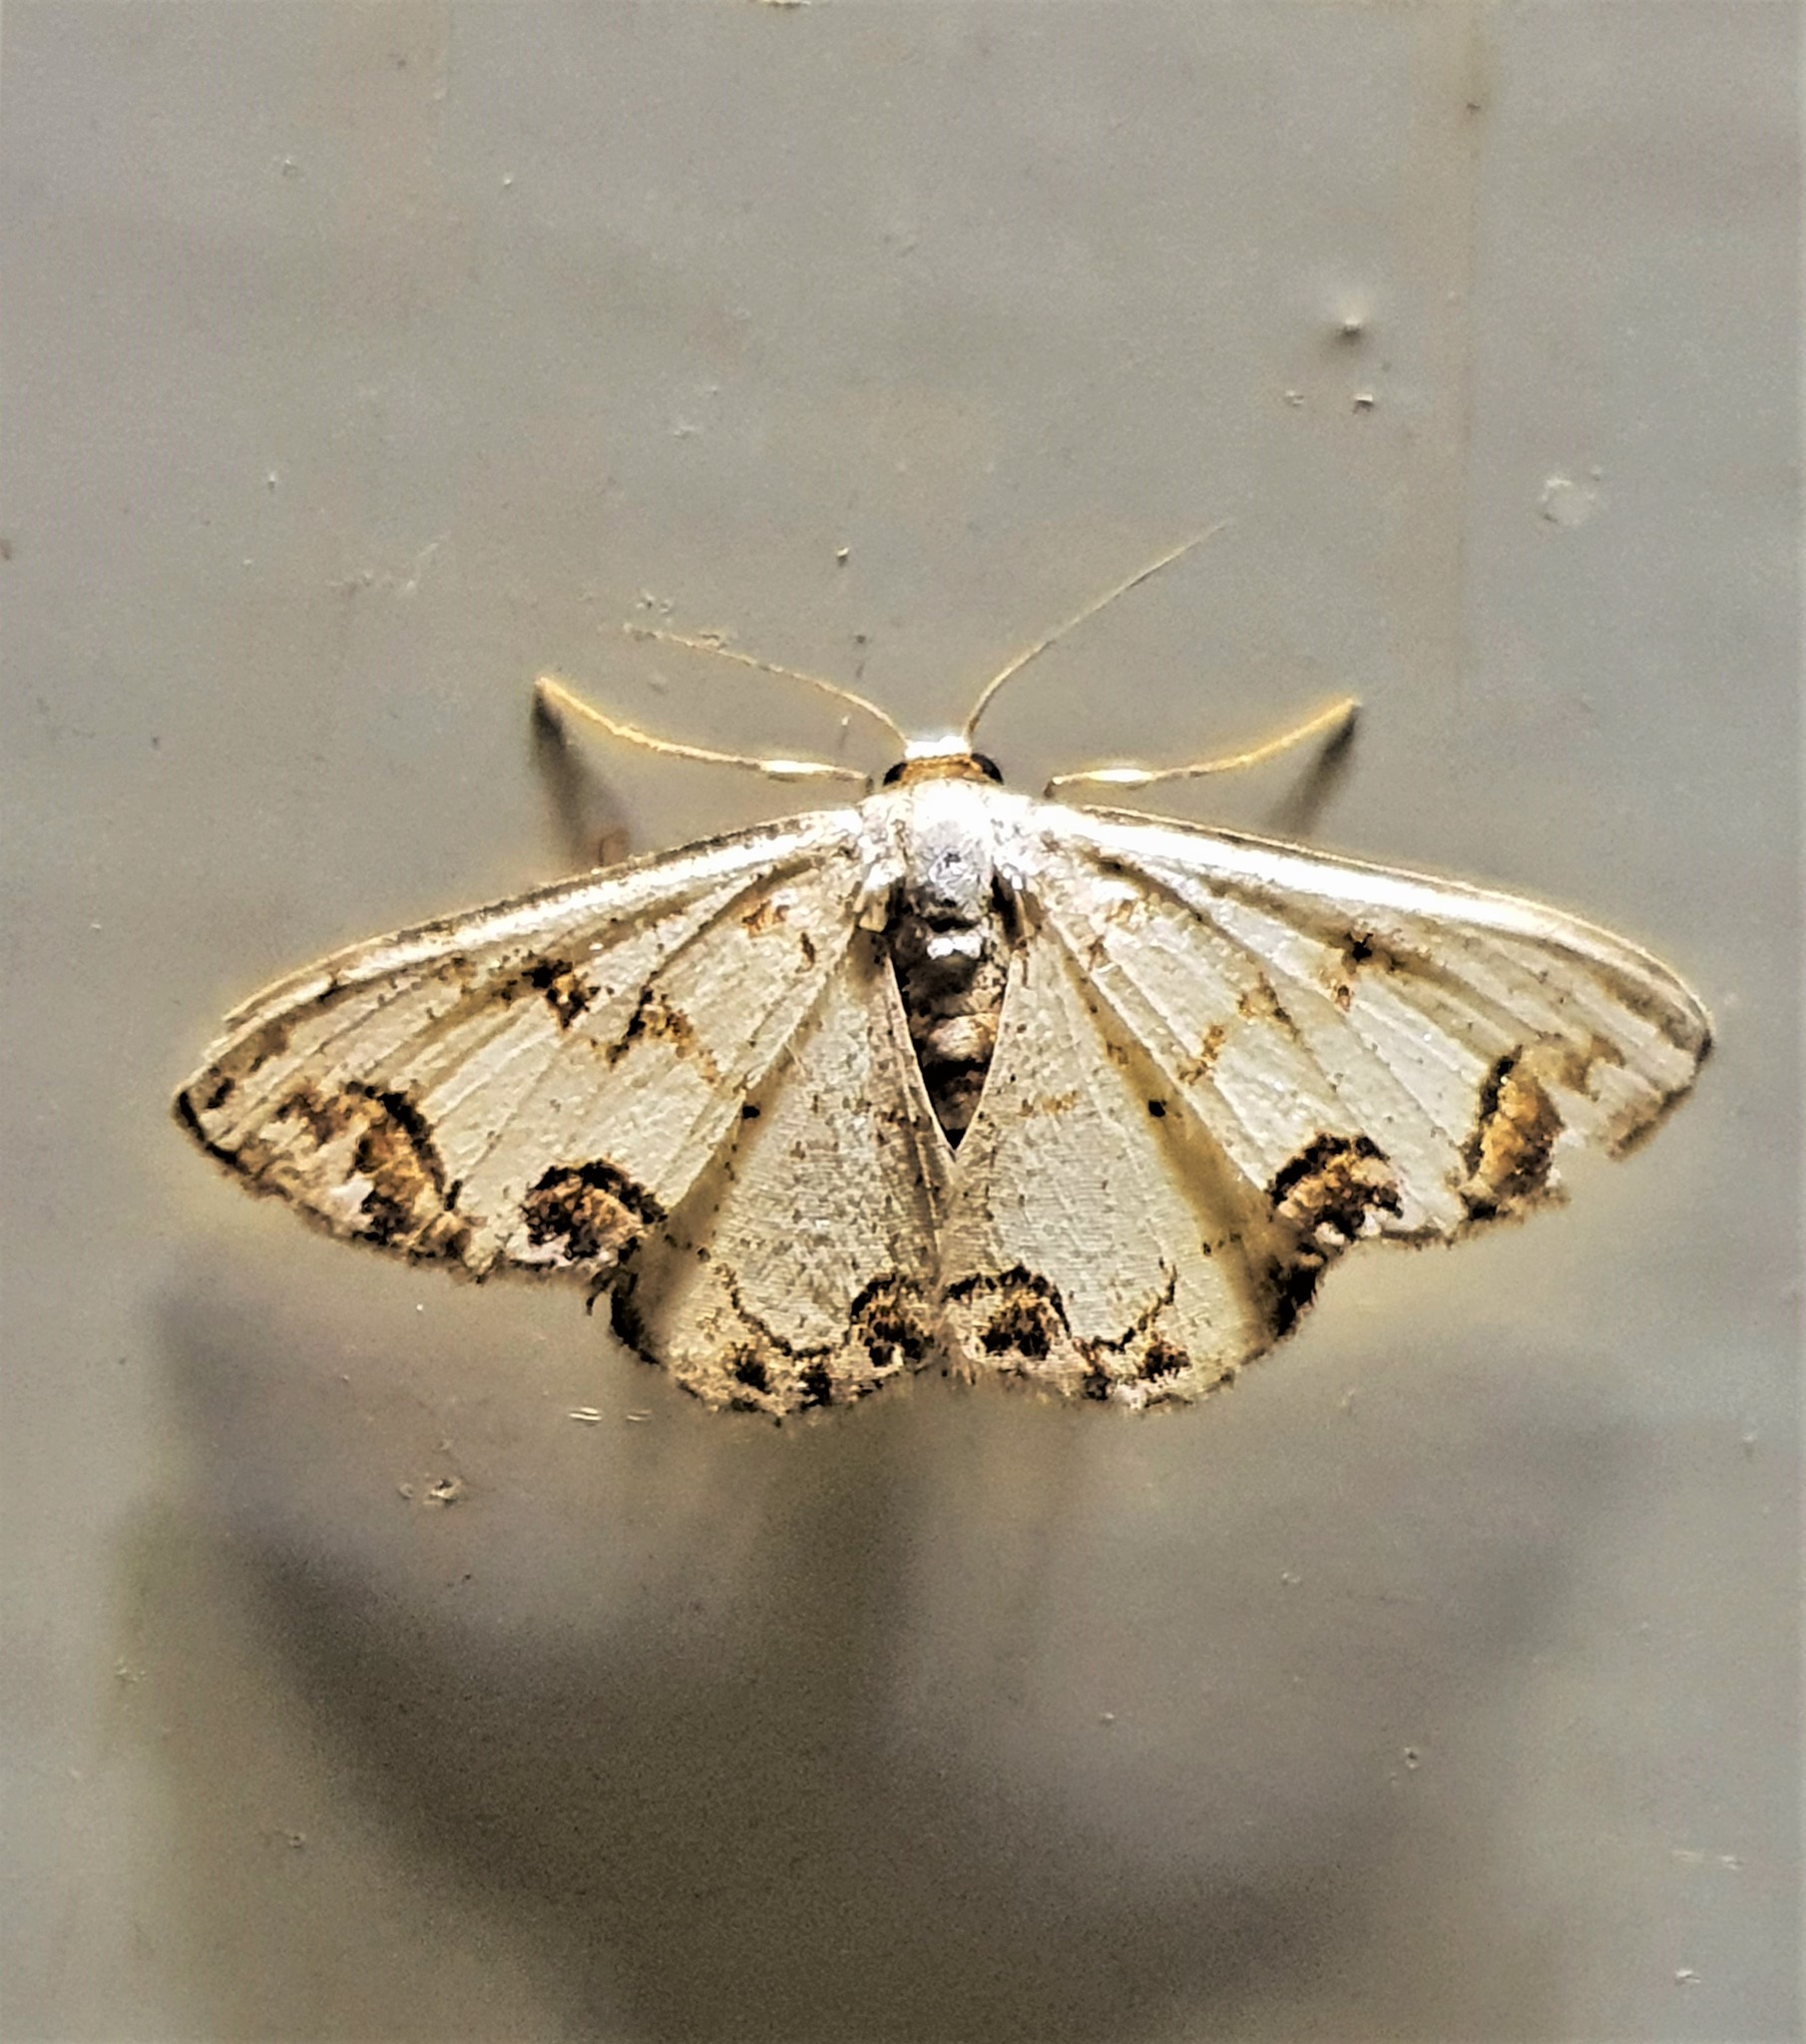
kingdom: Animalia
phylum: Arthropoda
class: Insecta
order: Lepidoptera
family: Geometridae
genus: Idaea
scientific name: Idaea expolitata
